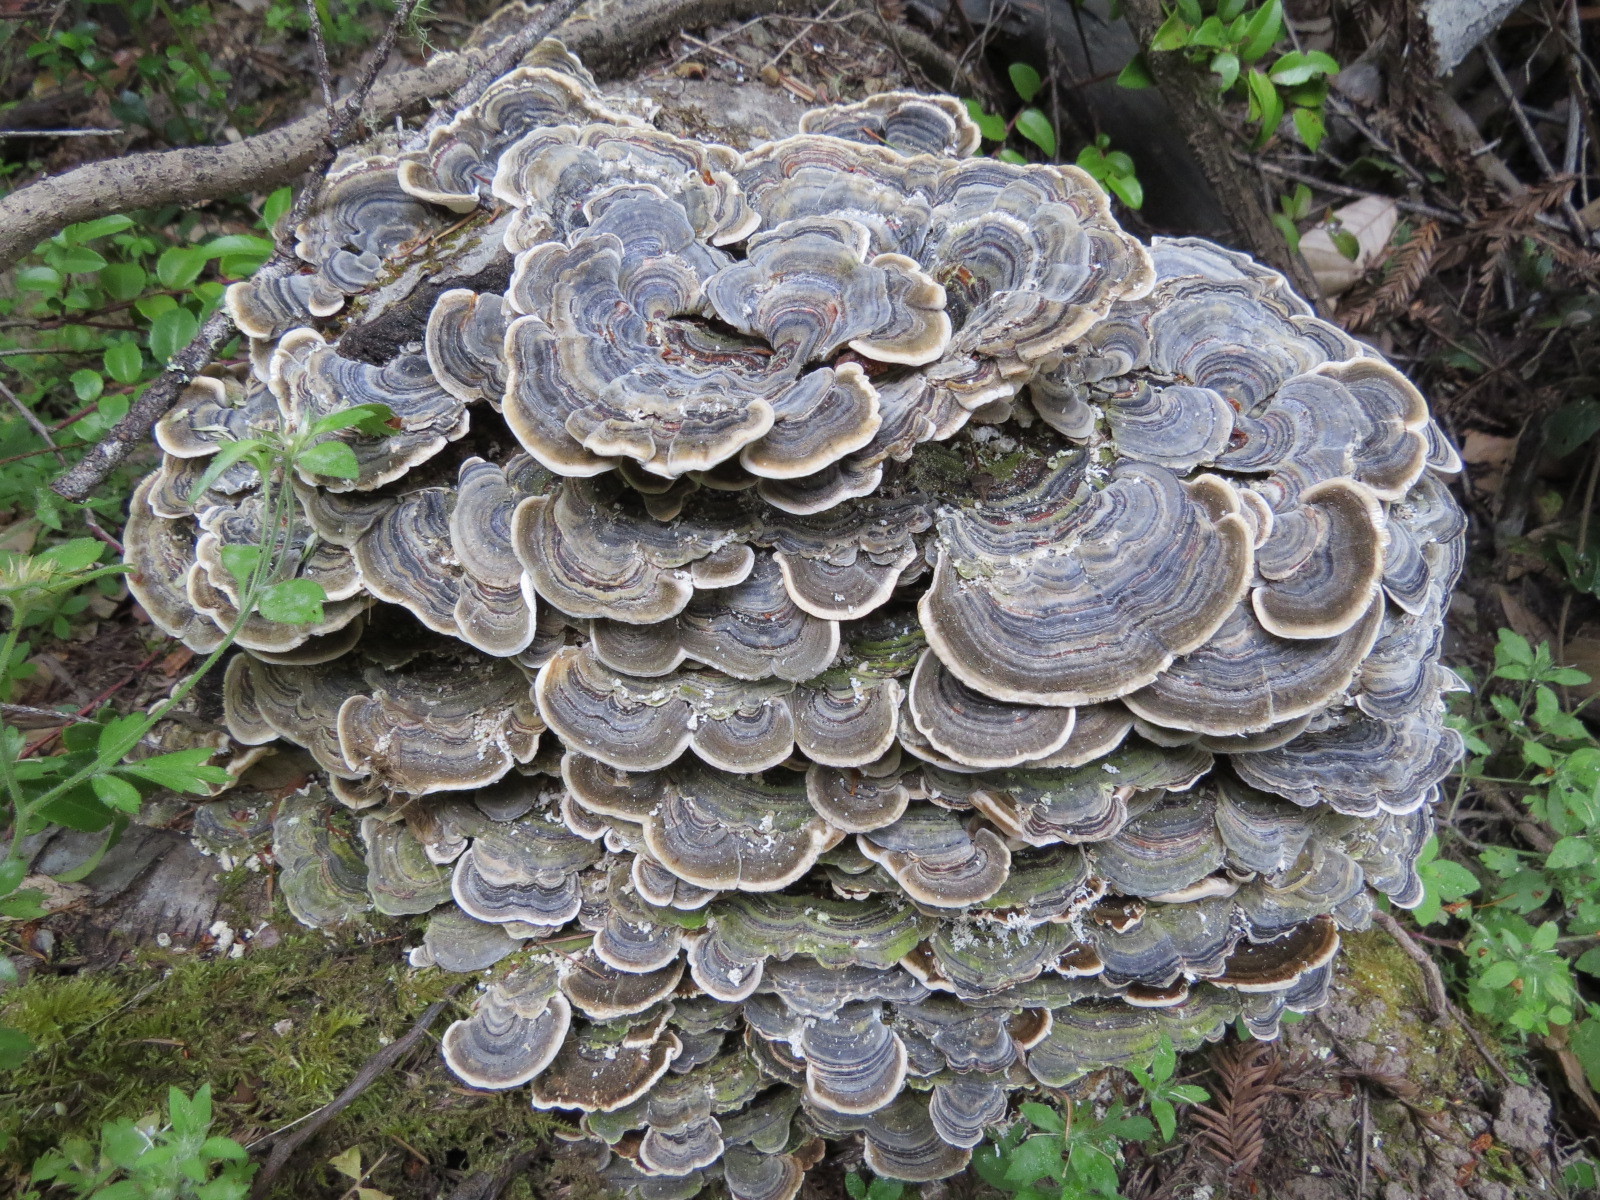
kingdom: Fungi
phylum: Basidiomycota
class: Agaricomycetes
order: Polyporales
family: Polyporaceae
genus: Trametes
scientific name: Trametes versicolor
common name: Turkeytail
